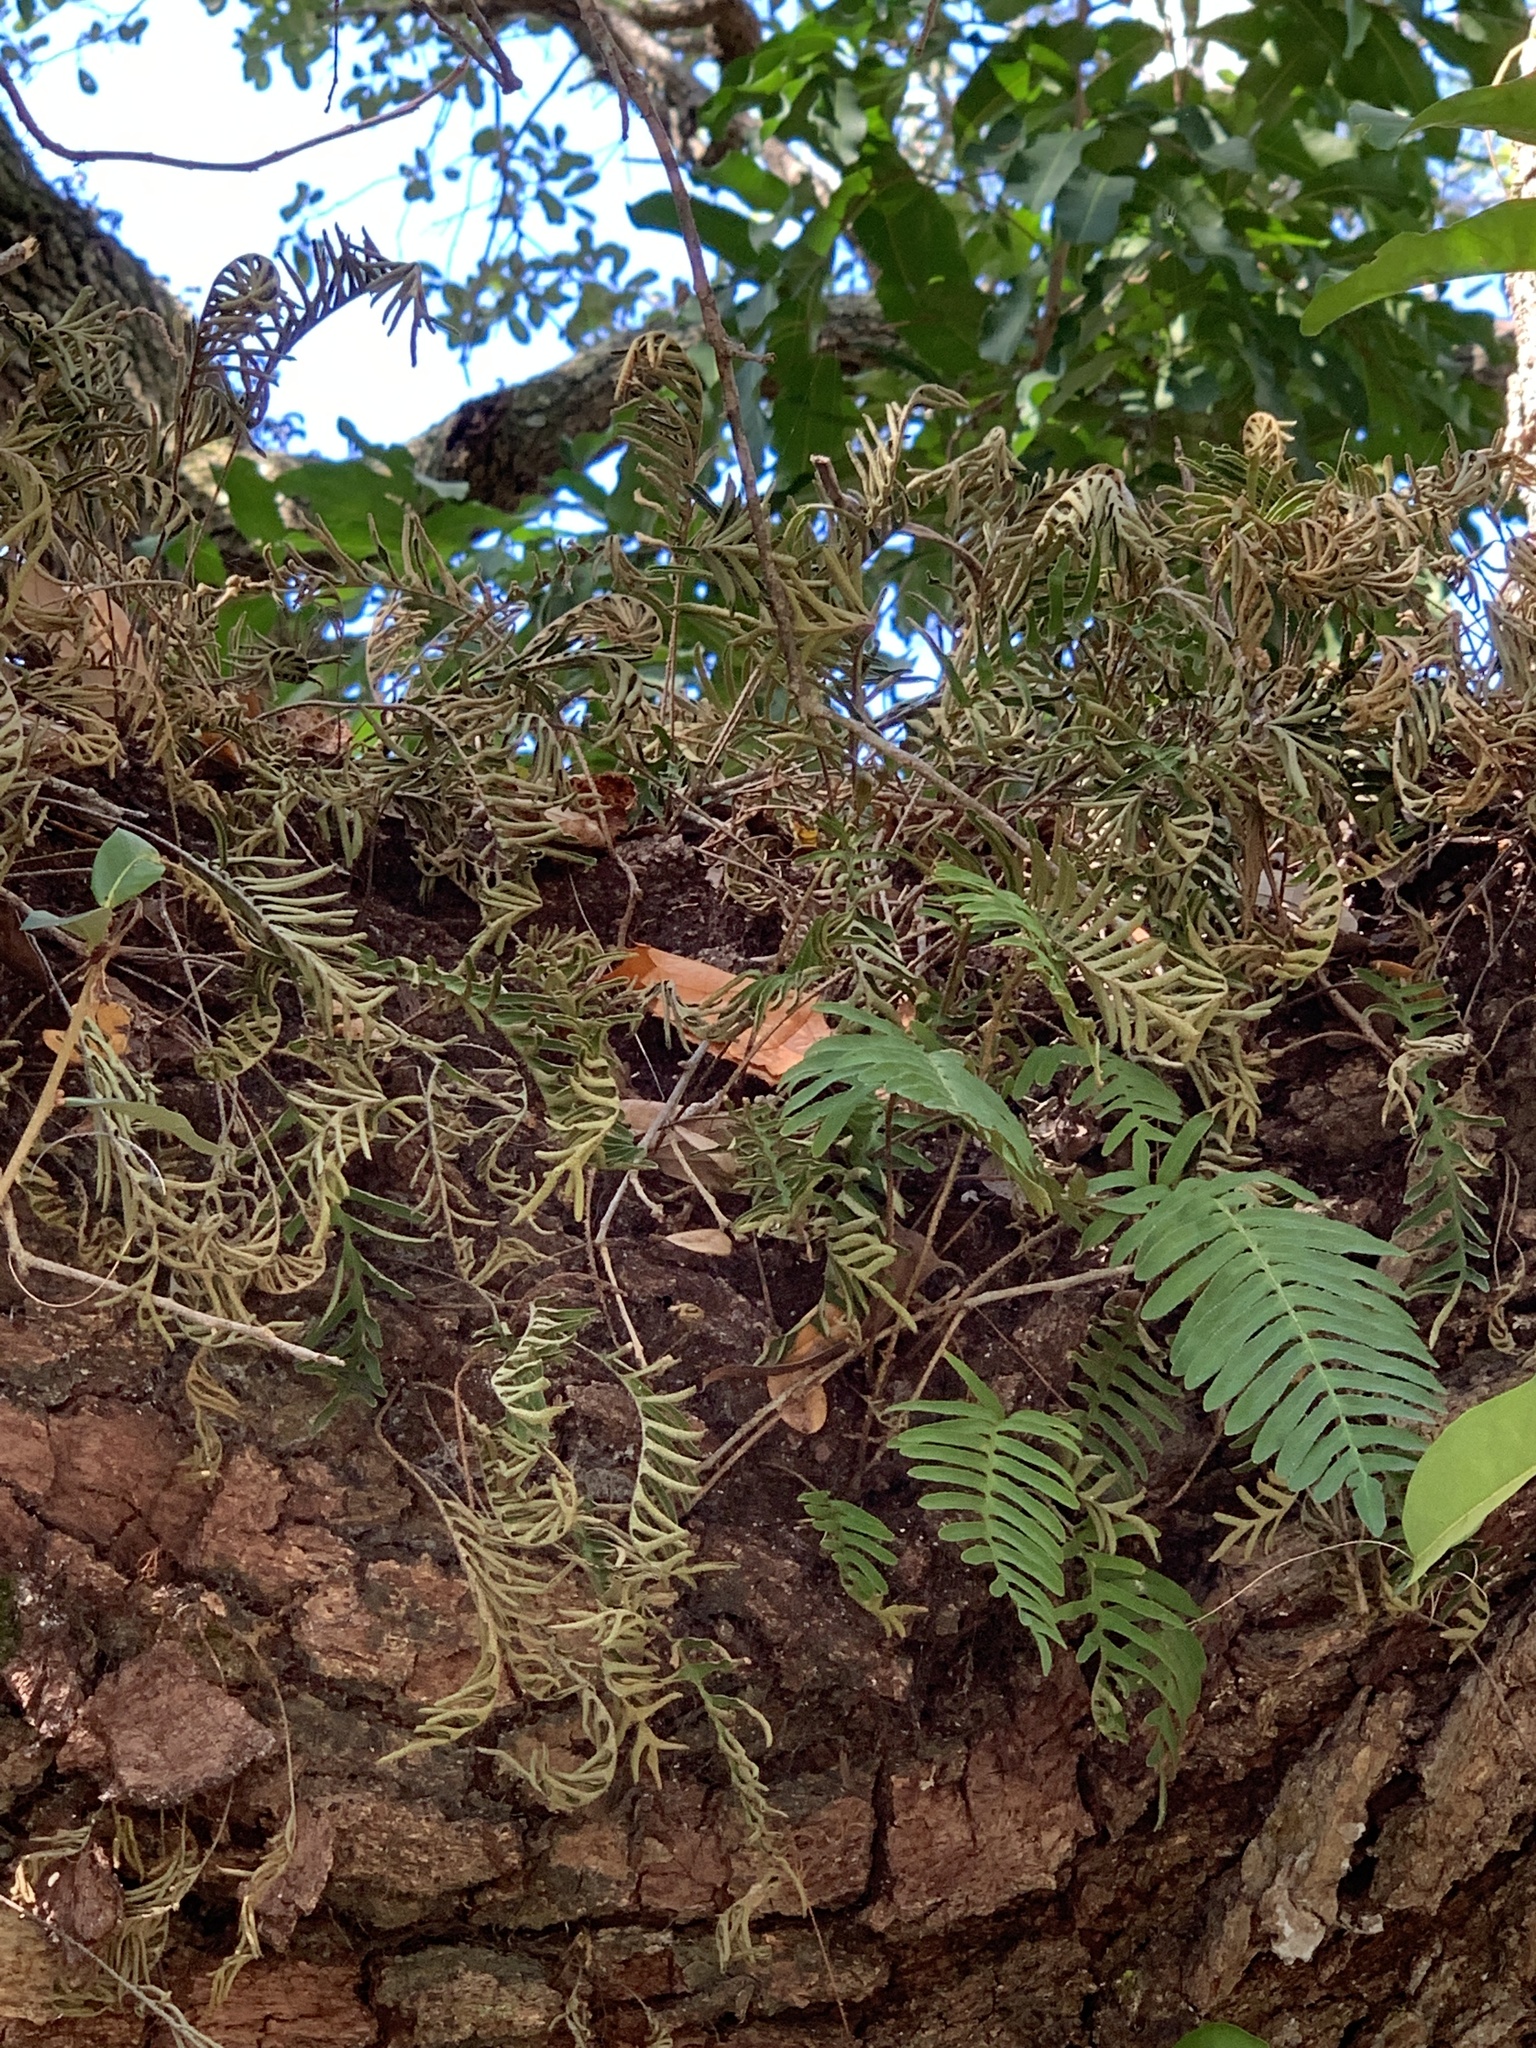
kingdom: Plantae
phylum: Tracheophyta
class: Polypodiopsida
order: Polypodiales
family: Polypodiaceae
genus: Pleopeltis
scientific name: Pleopeltis michauxiana
